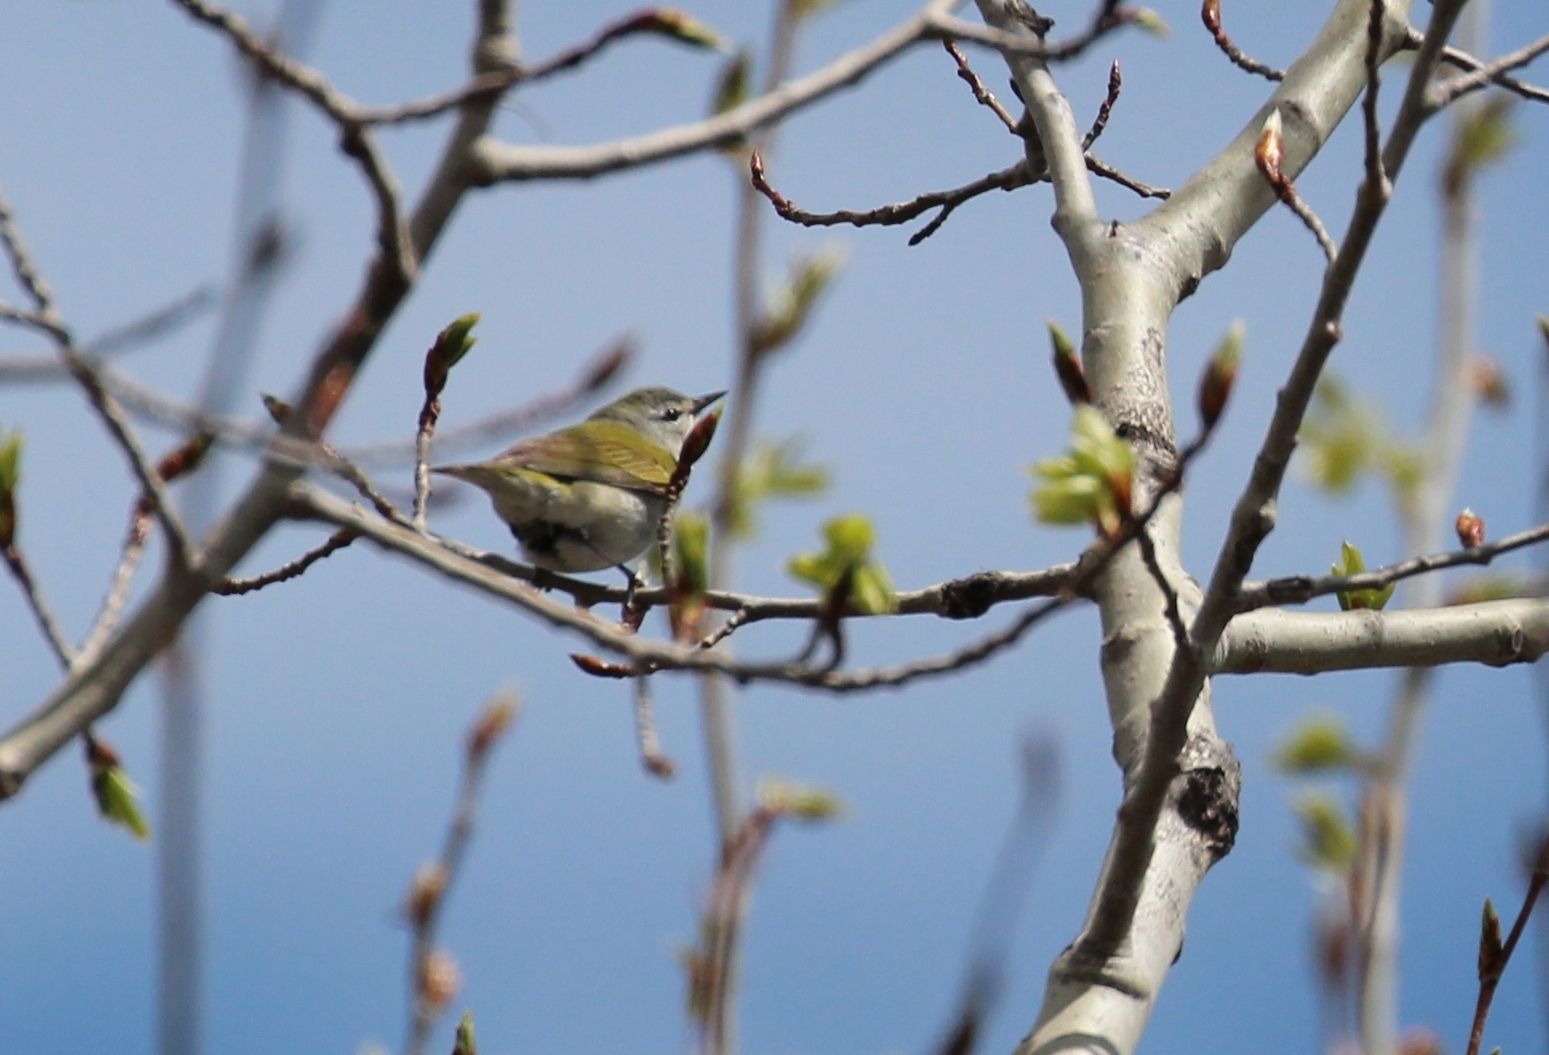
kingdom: Animalia
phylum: Chordata
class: Aves
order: Passeriformes
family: Parulidae
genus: Leiothlypis
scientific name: Leiothlypis peregrina
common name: Tennessee warbler
